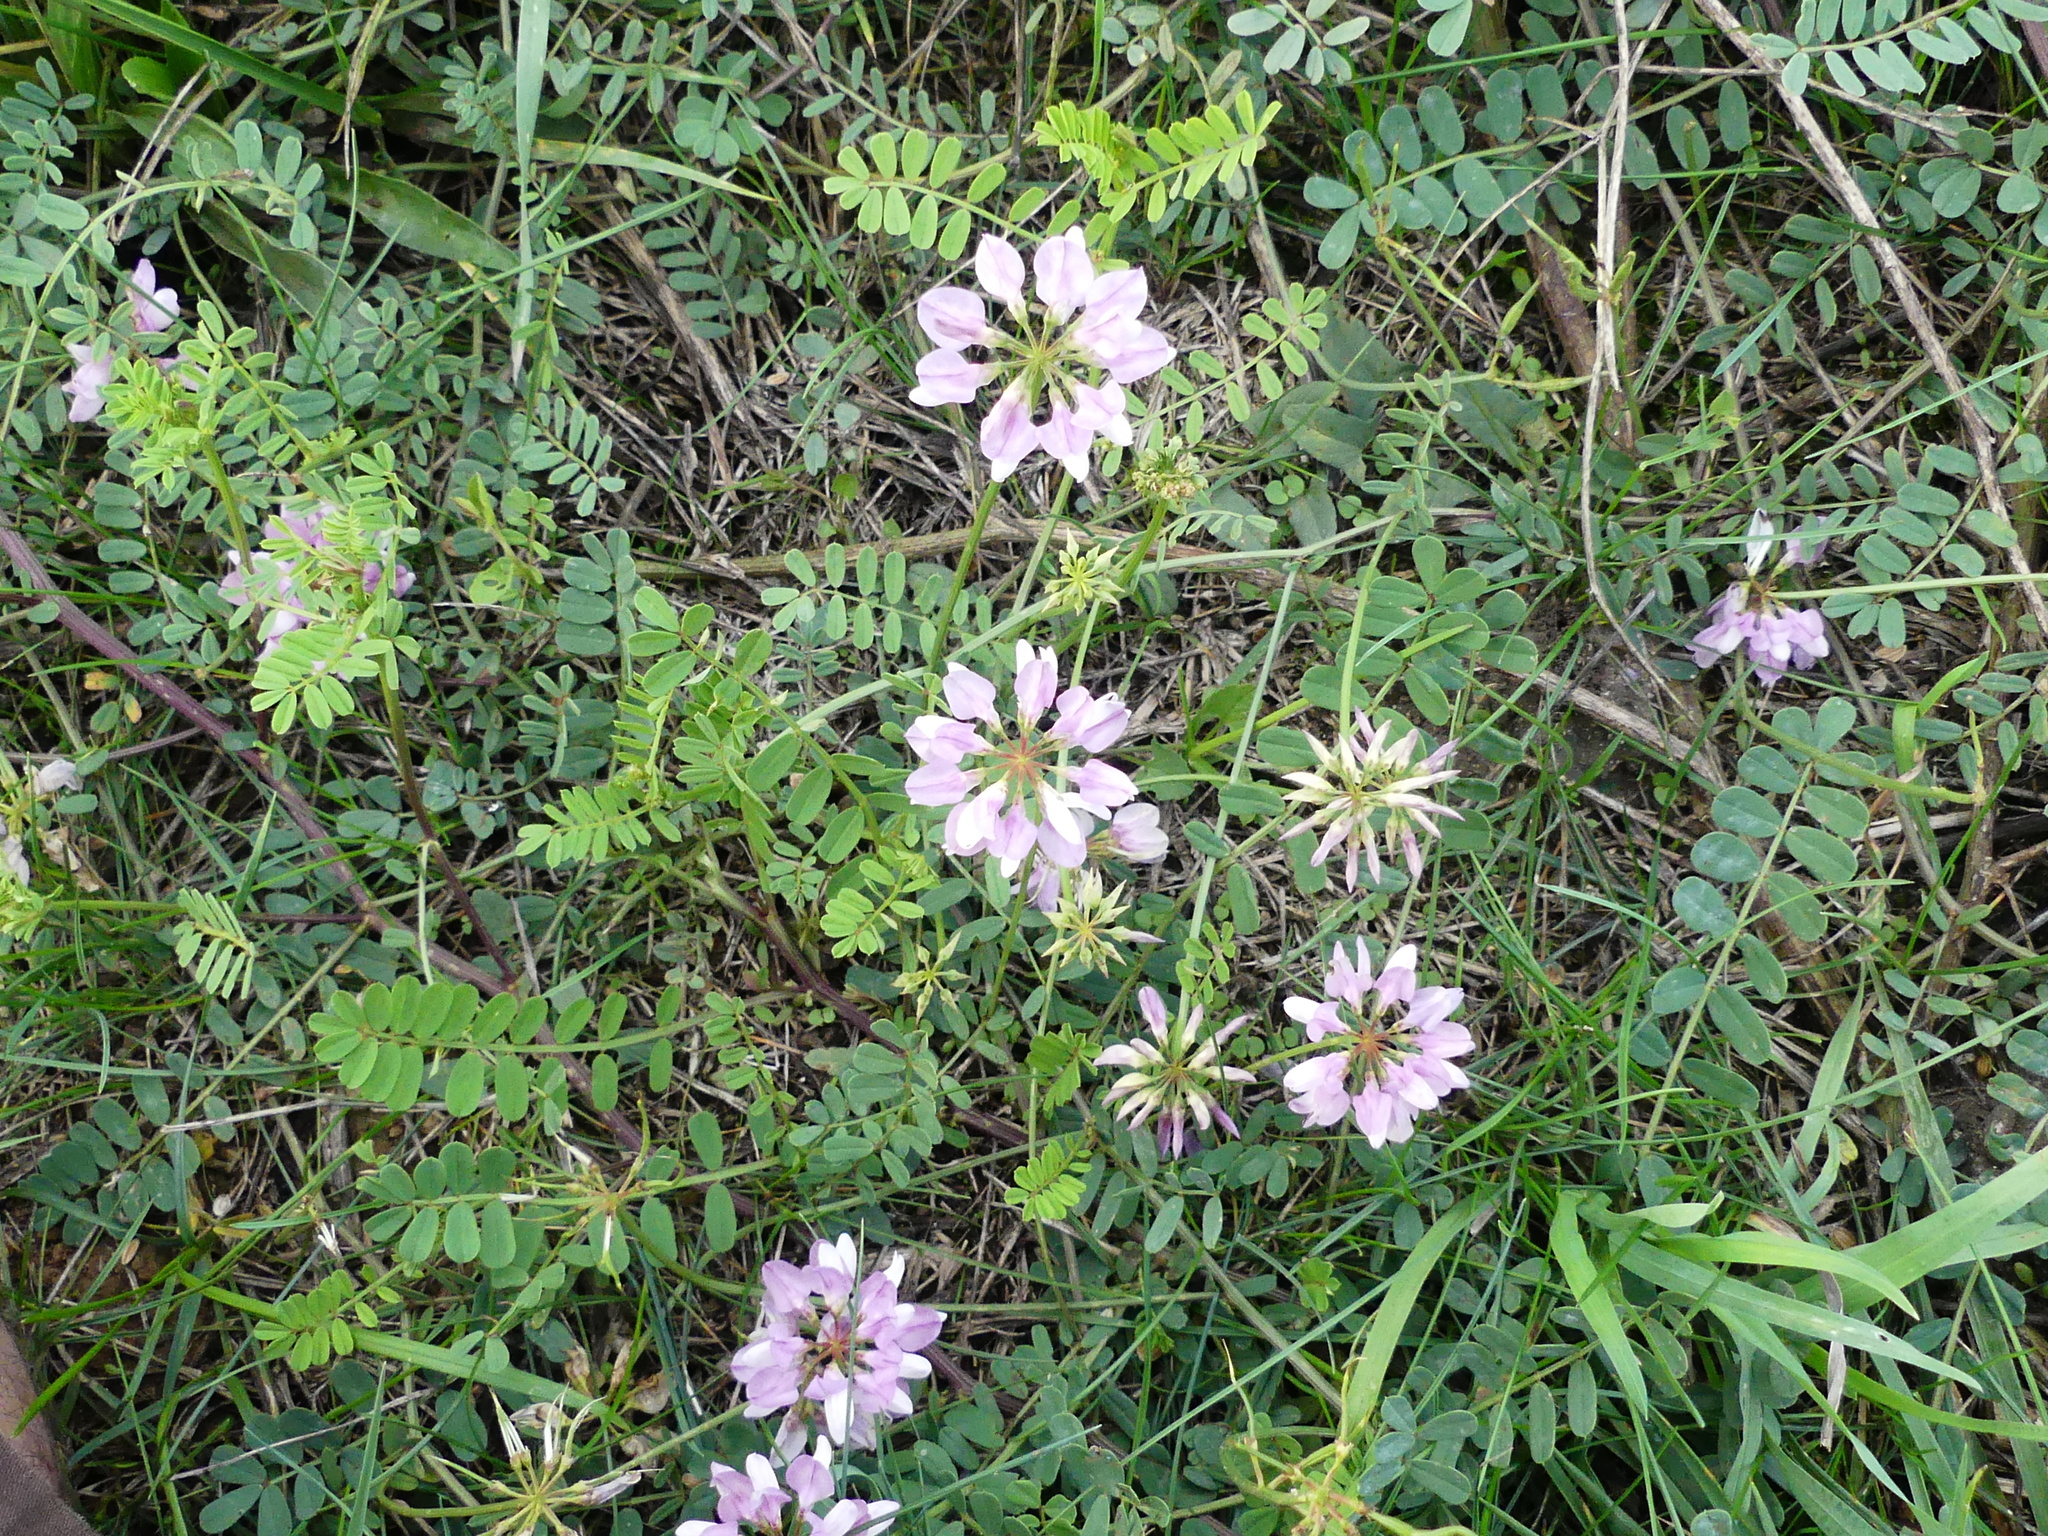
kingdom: Plantae
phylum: Tracheophyta
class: Magnoliopsida
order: Fabales
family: Fabaceae
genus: Coronilla
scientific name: Coronilla varia
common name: Crownvetch
